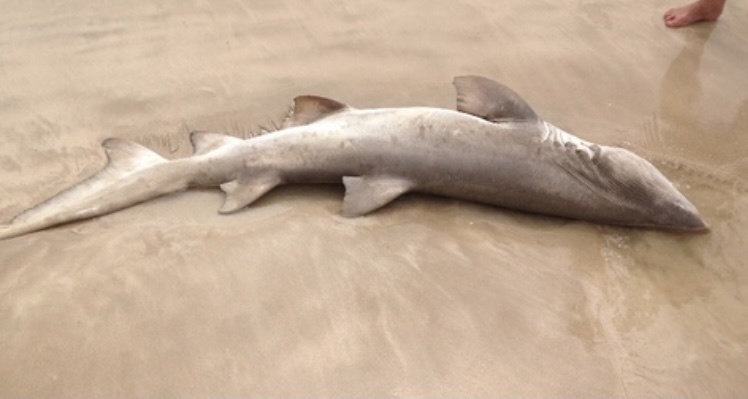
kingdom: Animalia
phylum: Chordata
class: Elasmobranchii
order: Lamniformes
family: Odontaspididae
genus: Carcharias
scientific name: Carcharias taurus
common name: Sand shark
